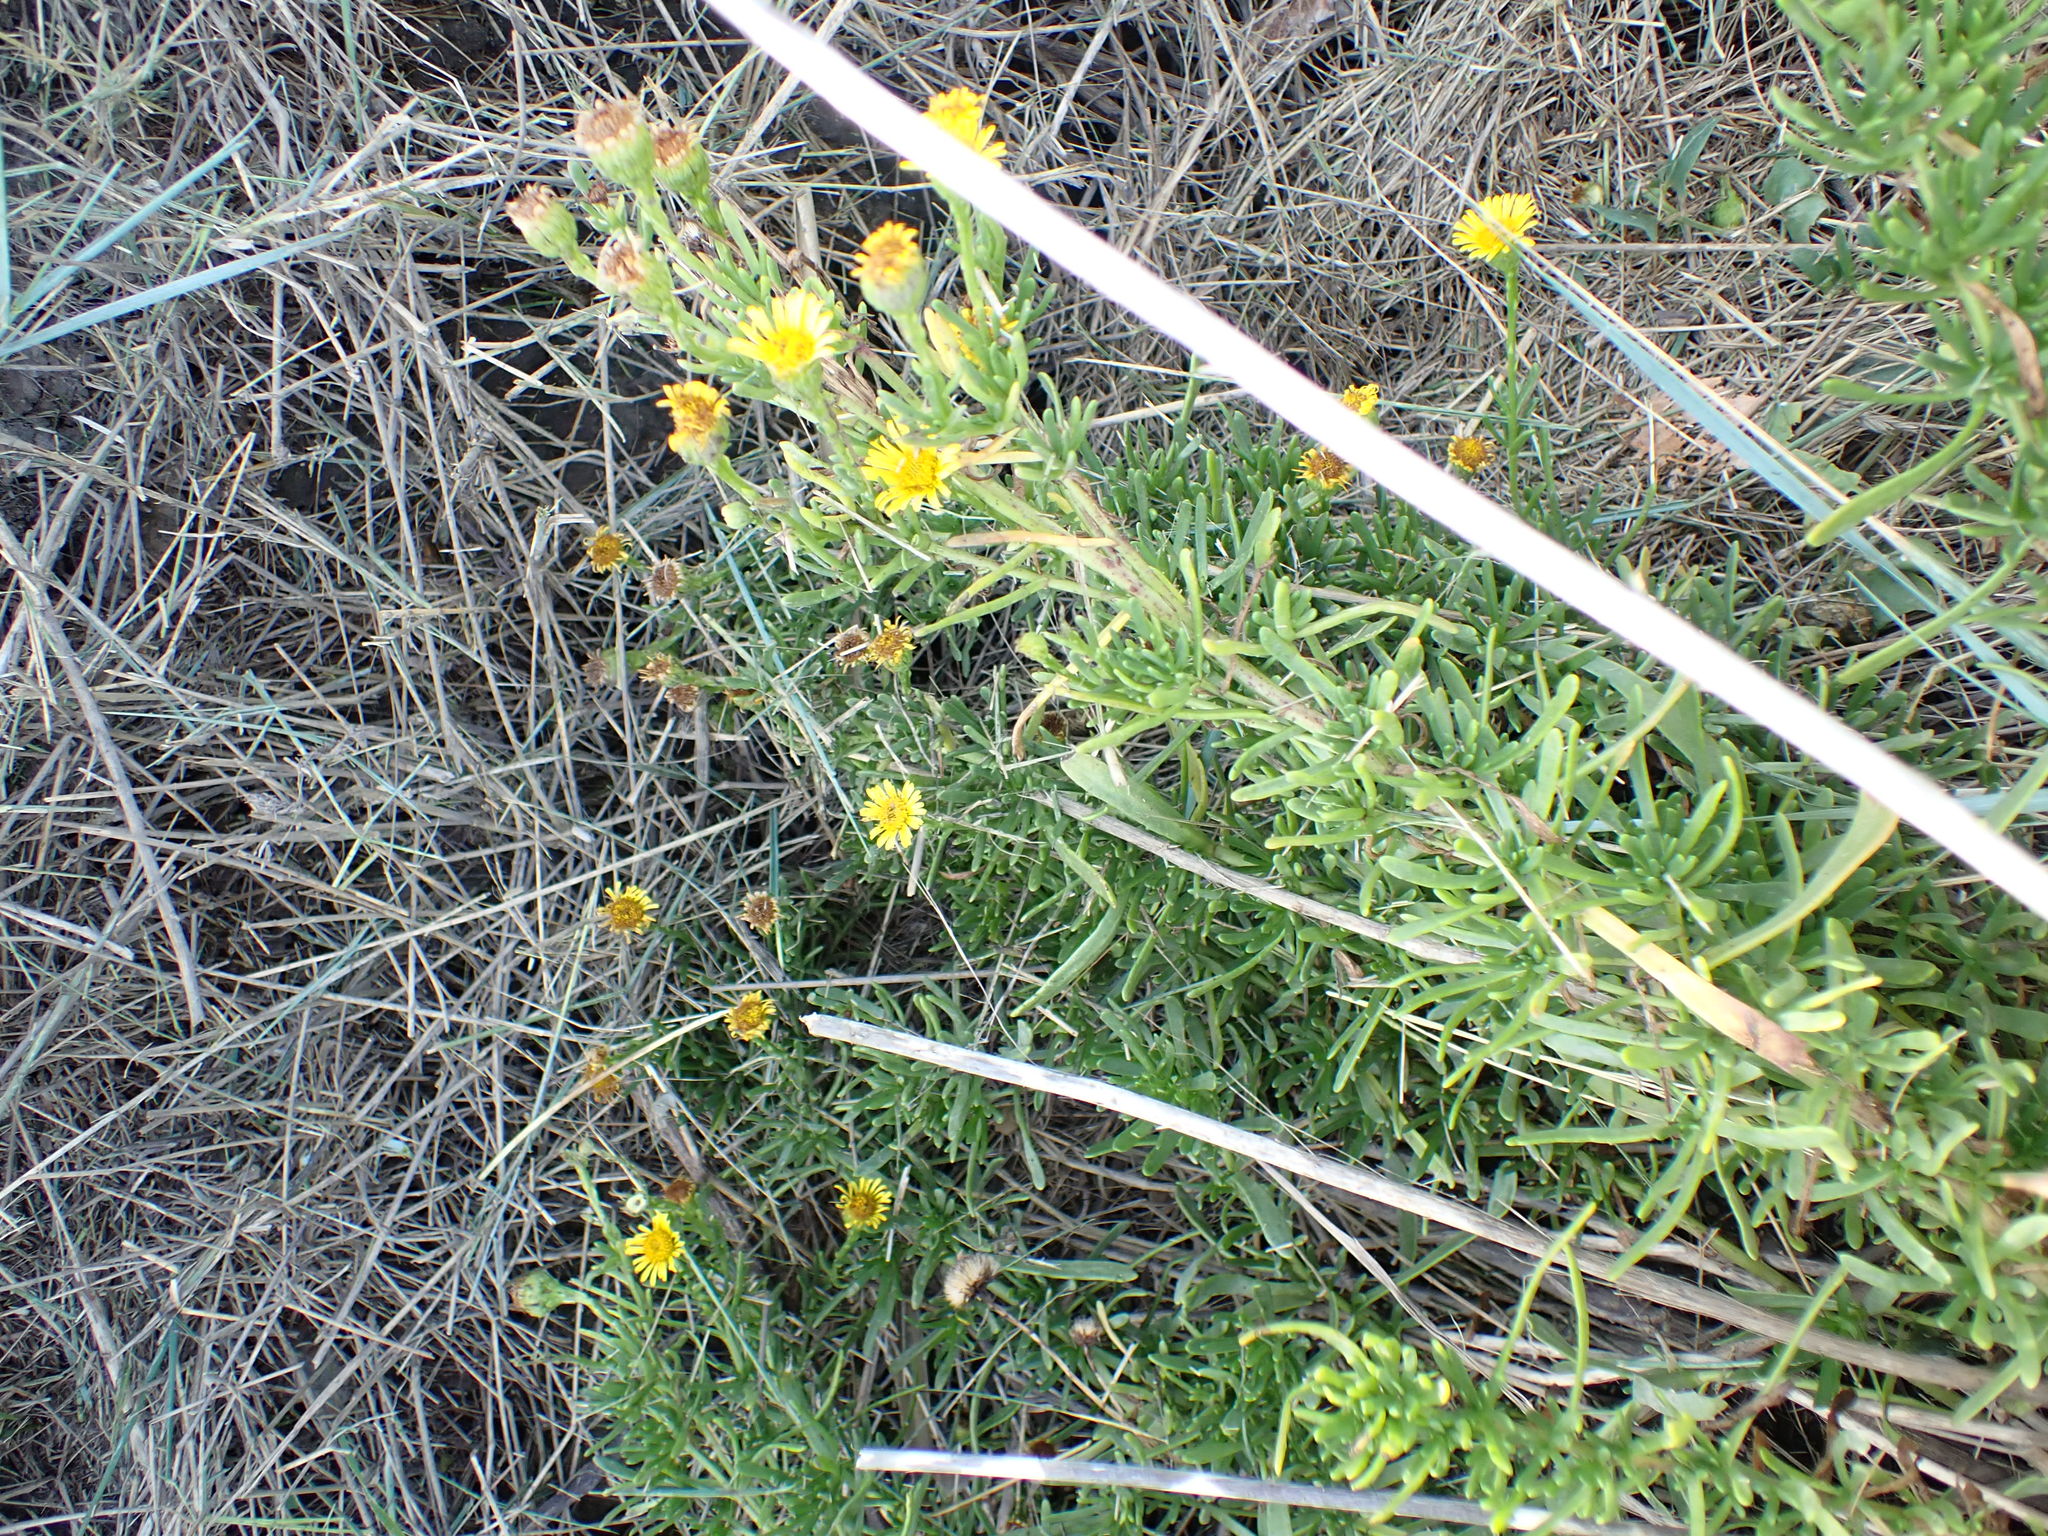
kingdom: Plantae
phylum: Tracheophyta
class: Magnoliopsida
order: Asterales
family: Asteraceae
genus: Limbarda
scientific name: Limbarda crithmoides
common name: Golden samphire
